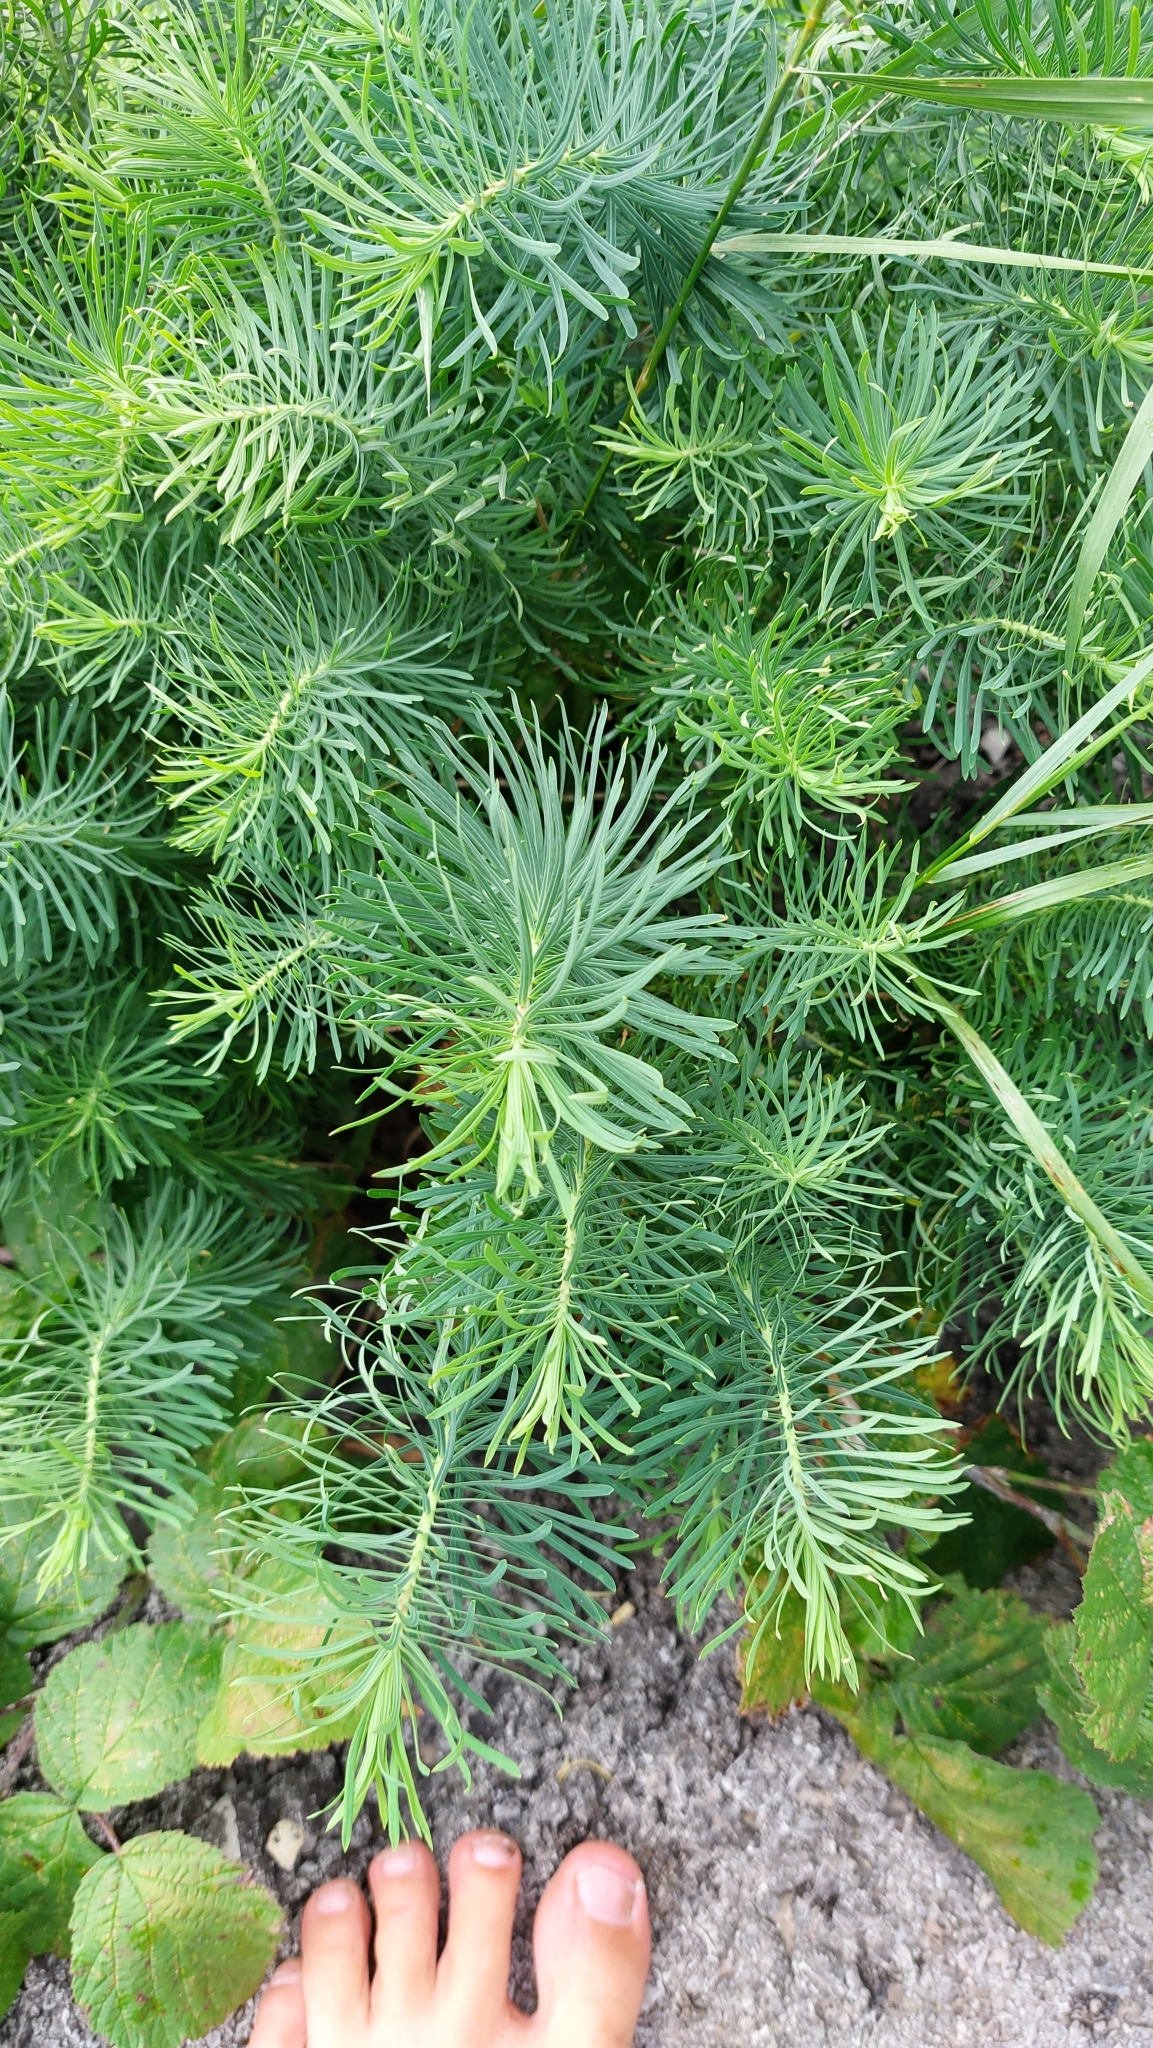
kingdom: Plantae
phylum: Tracheophyta
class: Magnoliopsida
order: Malpighiales
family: Euphorbiaceae
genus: Euphorbia
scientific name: Euphorbia cyparissias
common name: Cypress spurge
